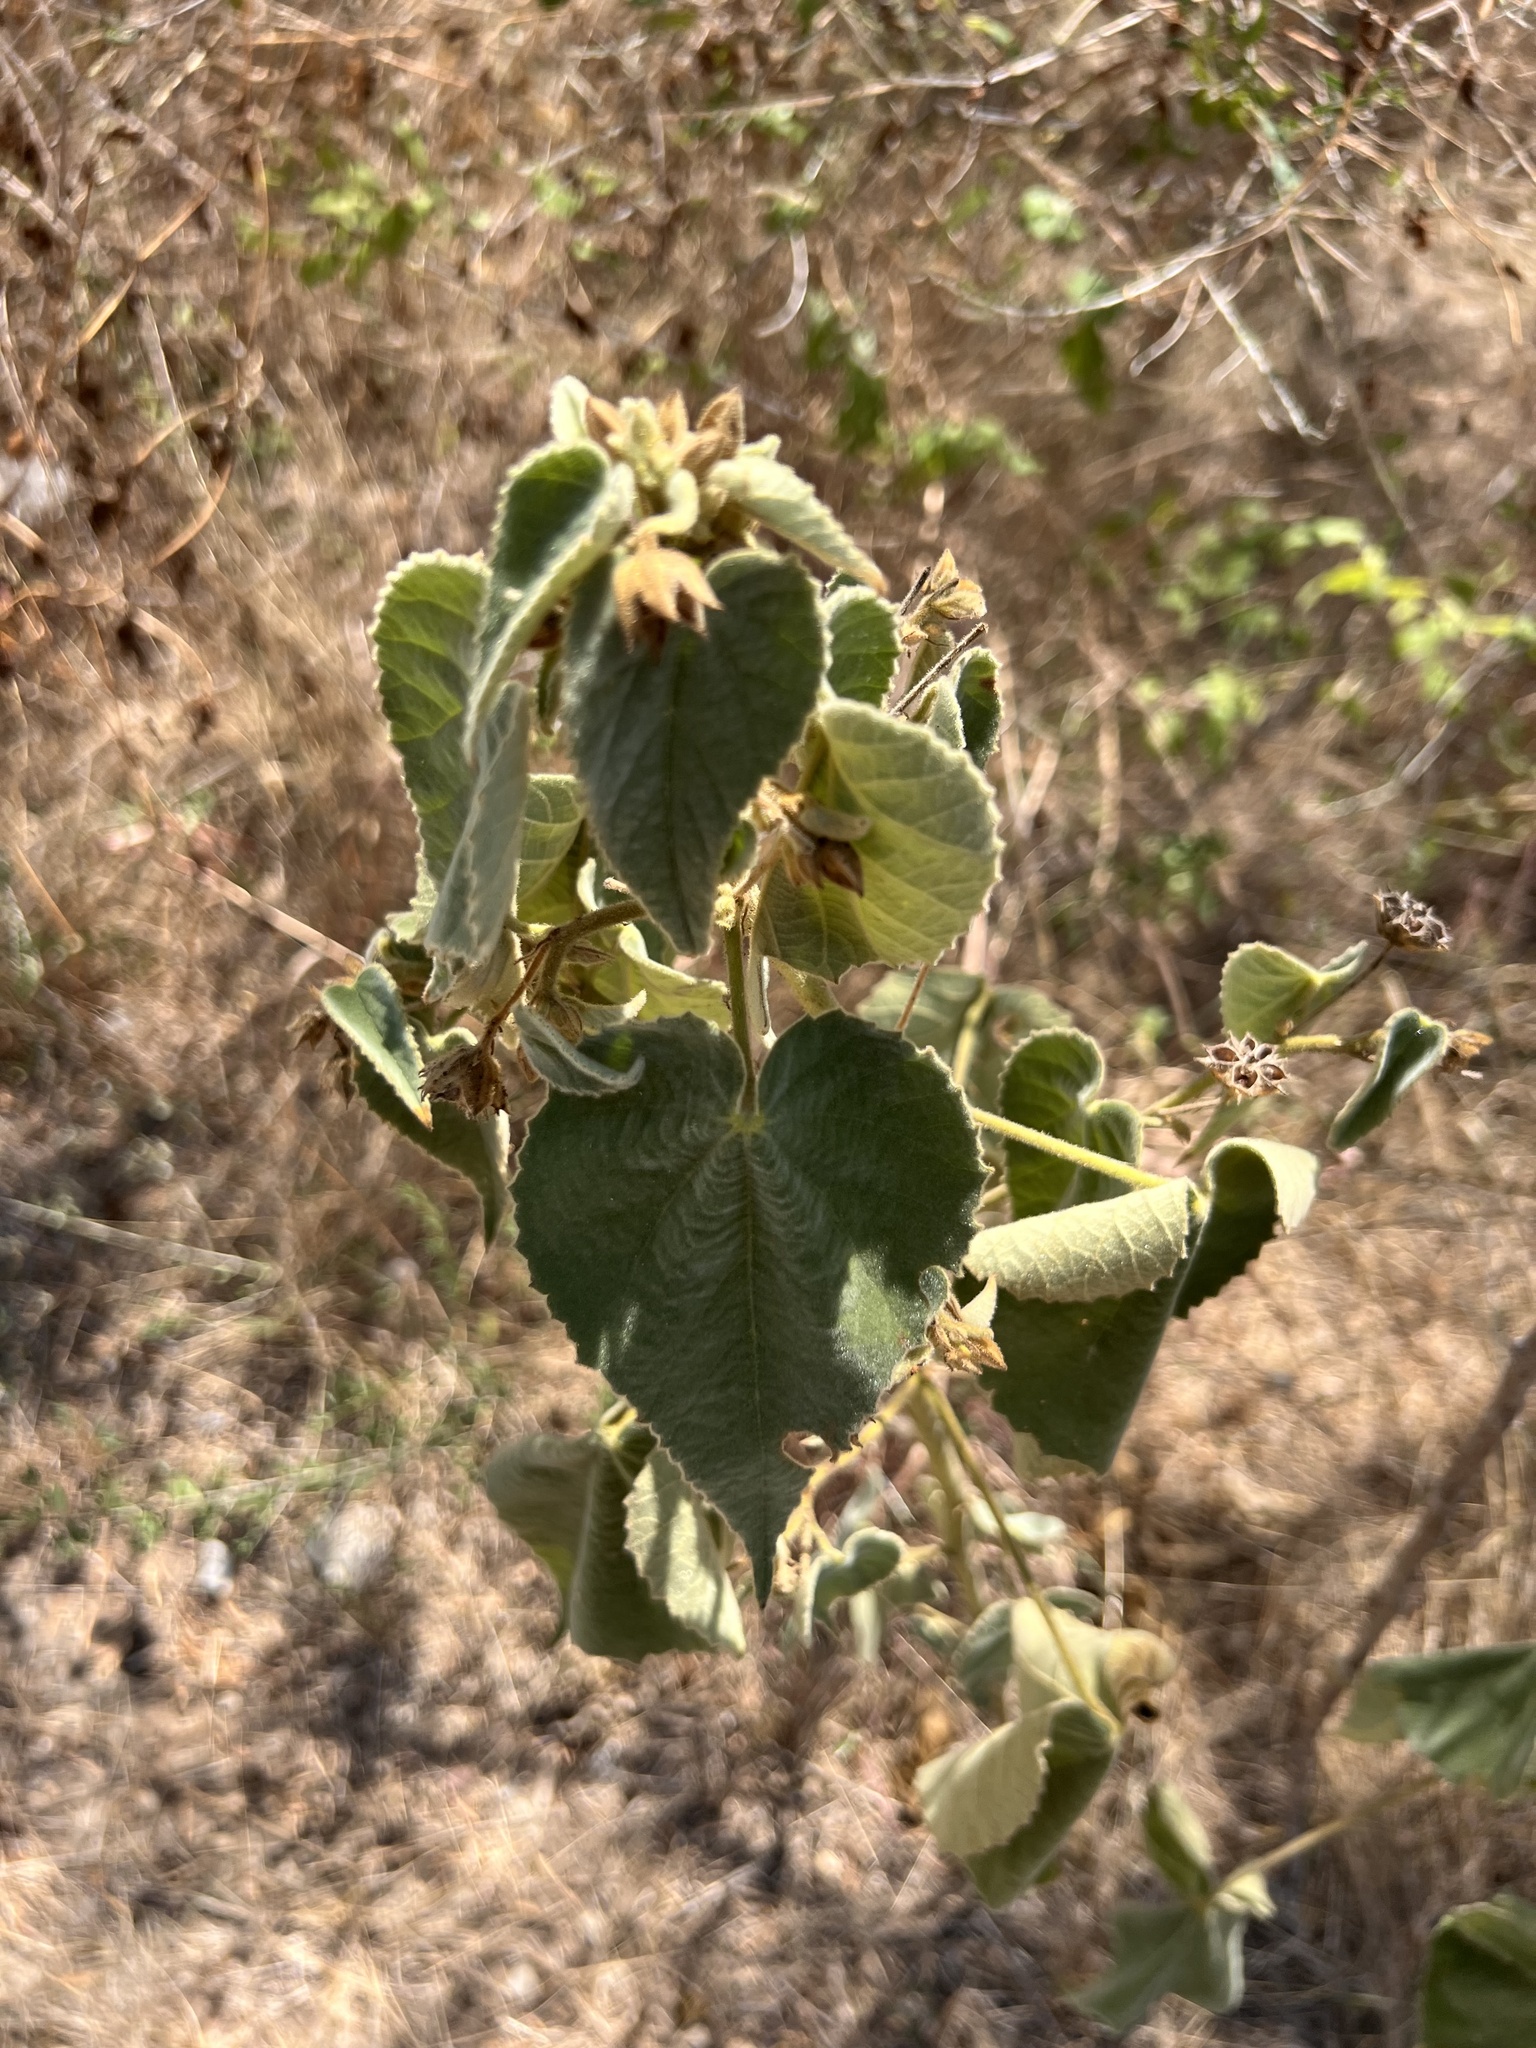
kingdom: Plantae
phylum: Tracheophyta
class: Magnoliopsida
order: Malvales
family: Malvaceae
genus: Allowissadula
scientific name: Allowissadula holosericea
